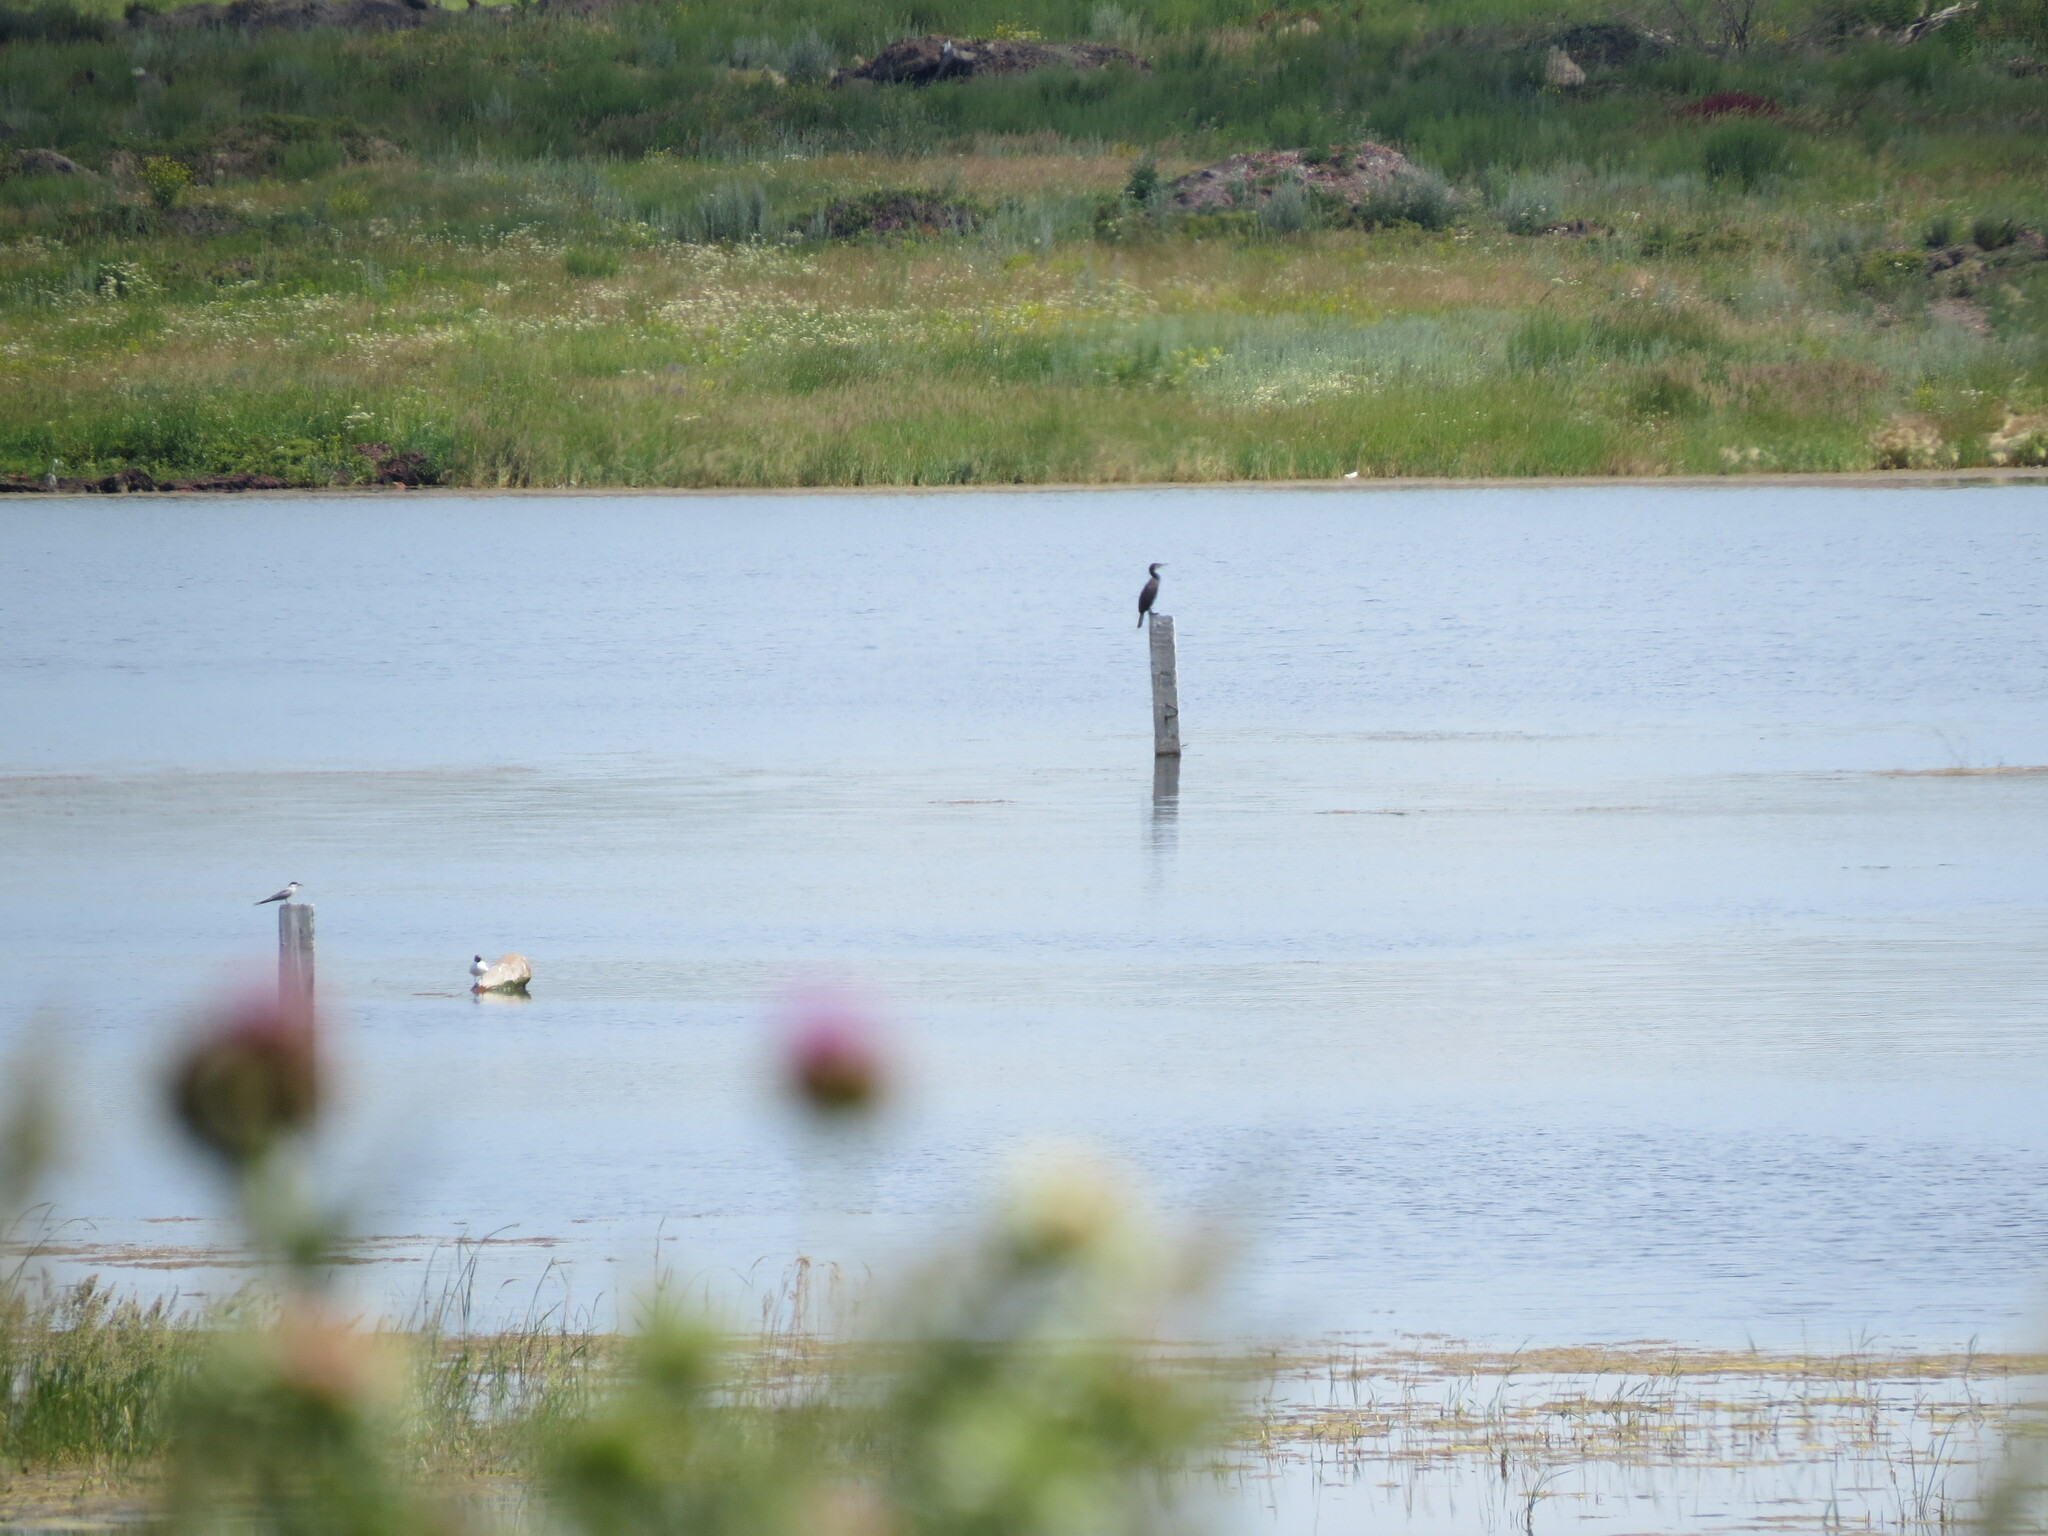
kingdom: Animalia
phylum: Chordata
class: Aves
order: Suliformes
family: Phalacrocoracidae
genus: Phalacrocorax
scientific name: Phalacrocorax carbo
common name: Great cormorant
